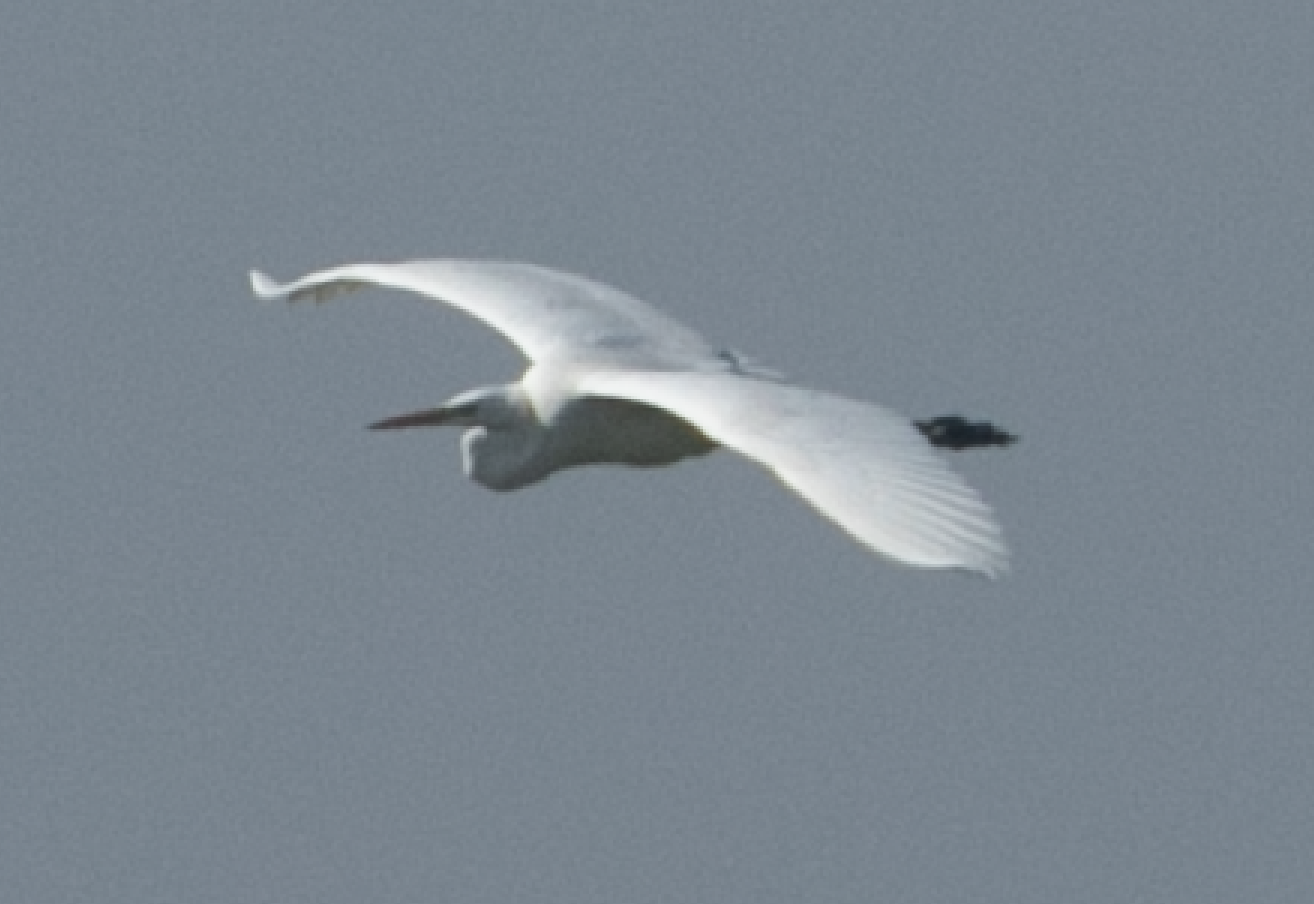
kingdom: Animalia
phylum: Chordata
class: Aves
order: Pelecaniformes
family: Ardeidae
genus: Ardea
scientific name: Ardea alba
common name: Great egret
